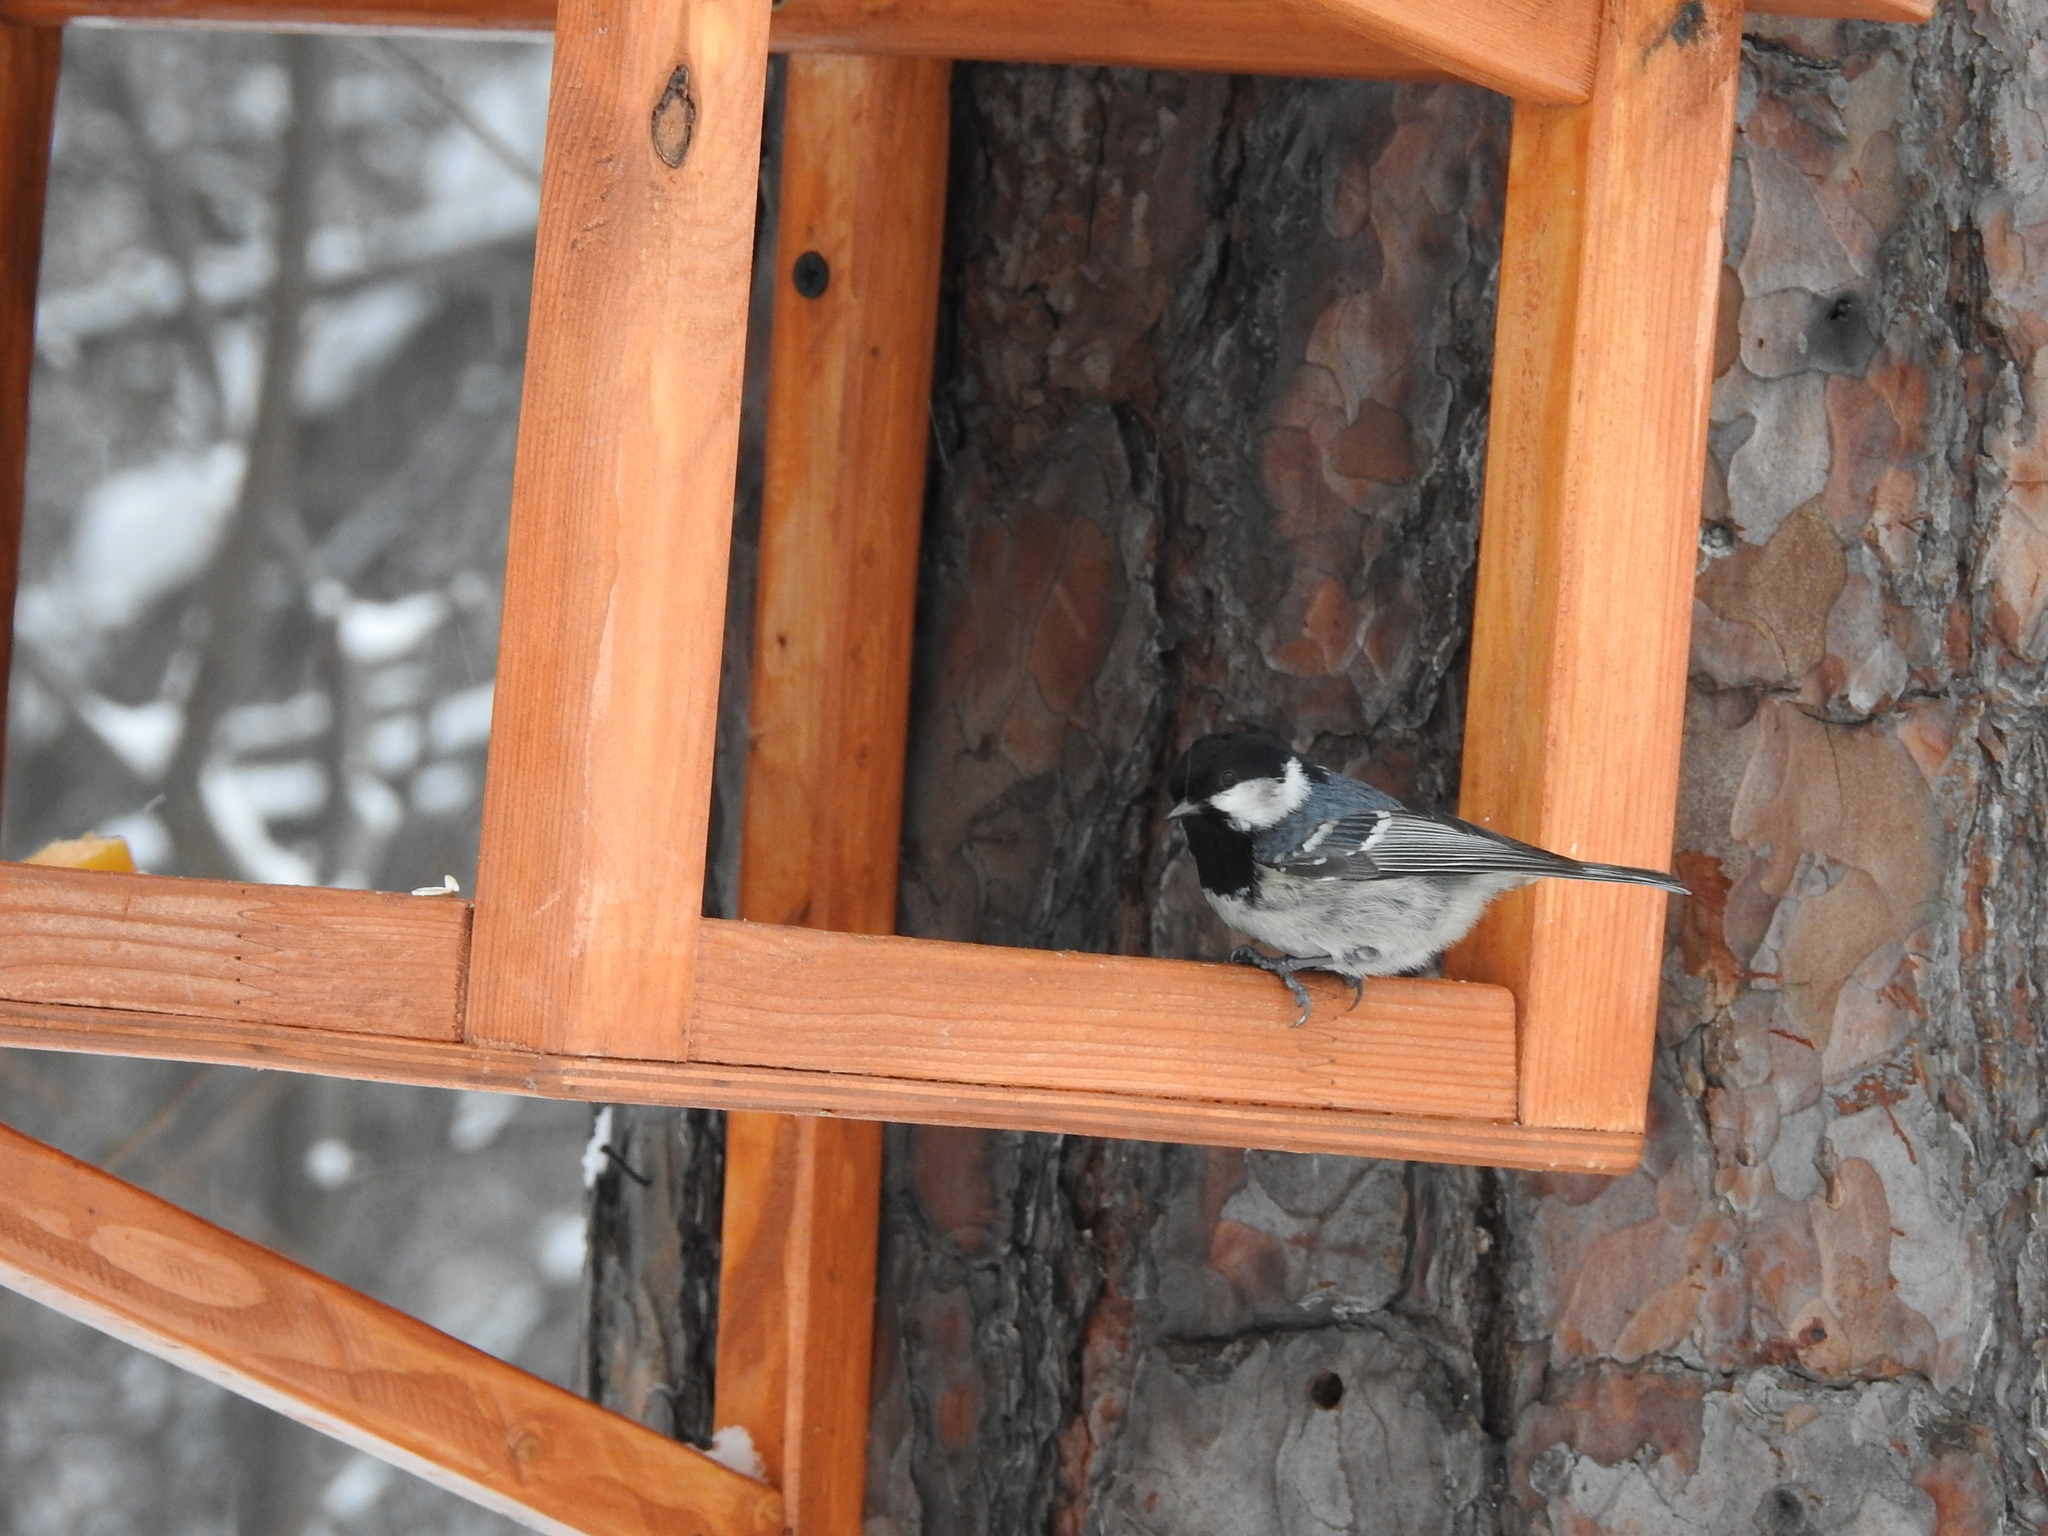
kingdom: Animalia
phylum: Chordata
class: Aves
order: Passeriformes
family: Paridae
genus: Periparus
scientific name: Periparus ater
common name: Coal tit
